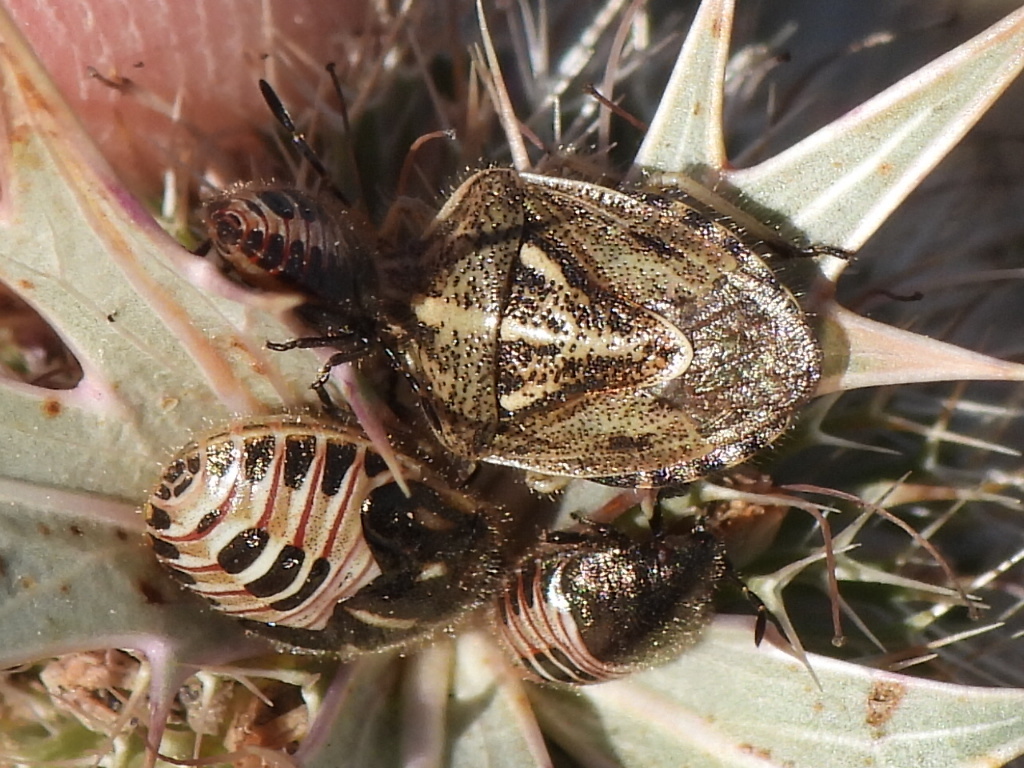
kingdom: Animalia
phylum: Arthropoda
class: Insecta
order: Hemiptera
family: Pentatomidae
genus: Trichopepla
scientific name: Trichopepla semivittata
